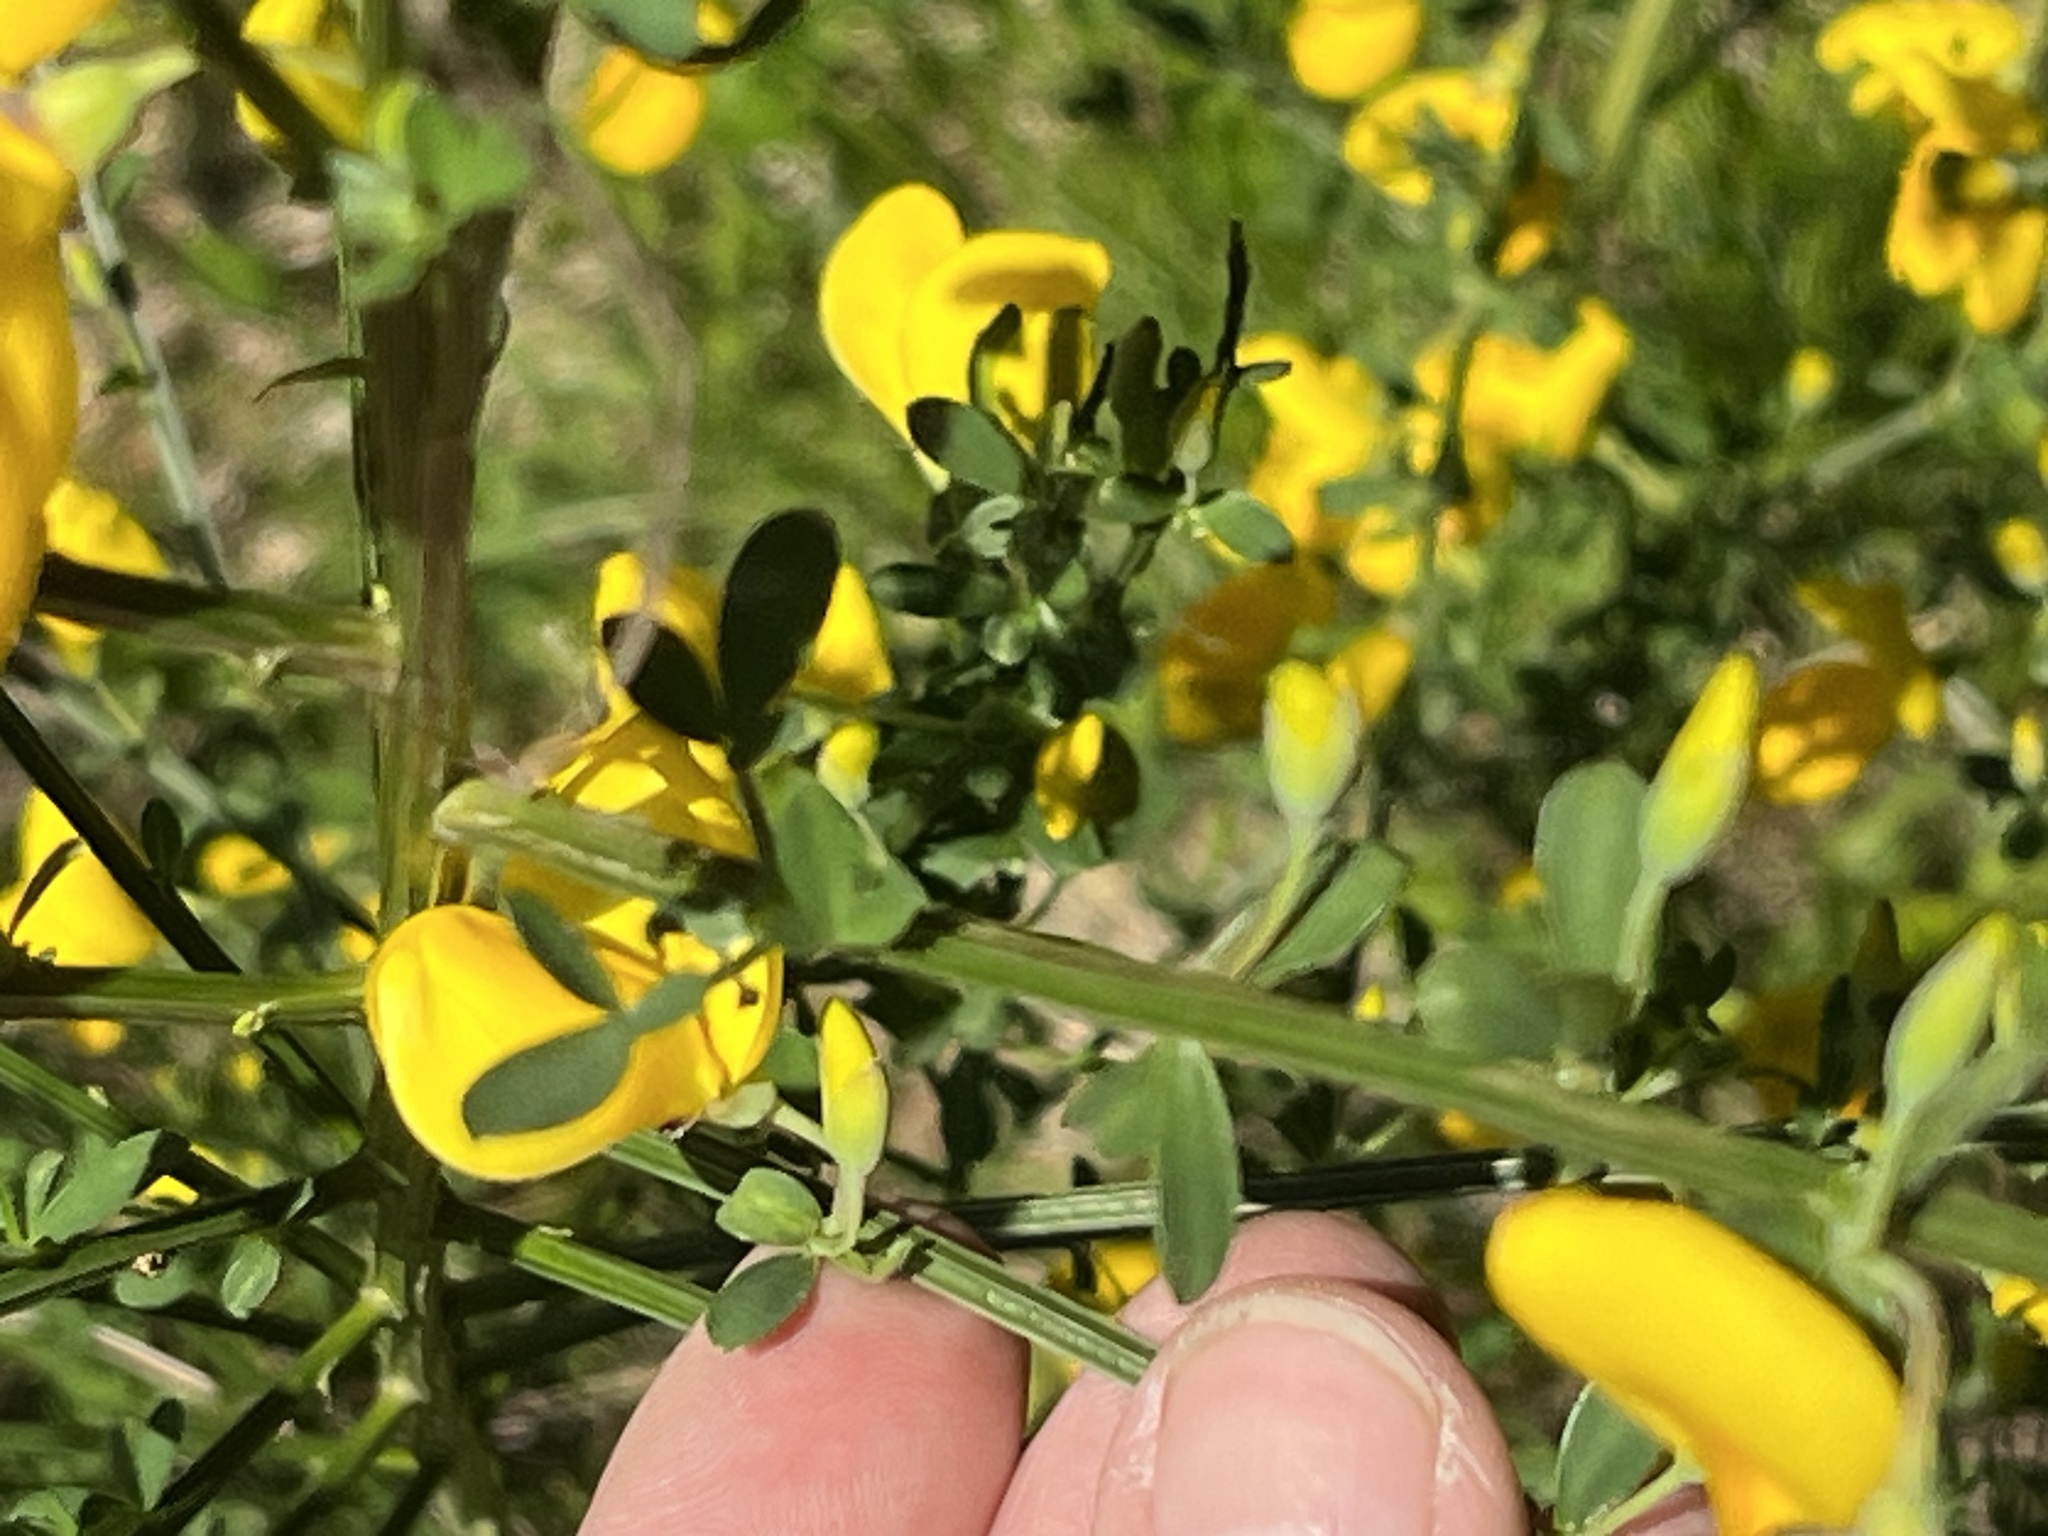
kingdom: Plantae
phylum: Tracheophyta
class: Magnoliopsida
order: Fabales
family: Fabaceae
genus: Cytisus
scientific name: Cytisus scoparius
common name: Scotch broom
